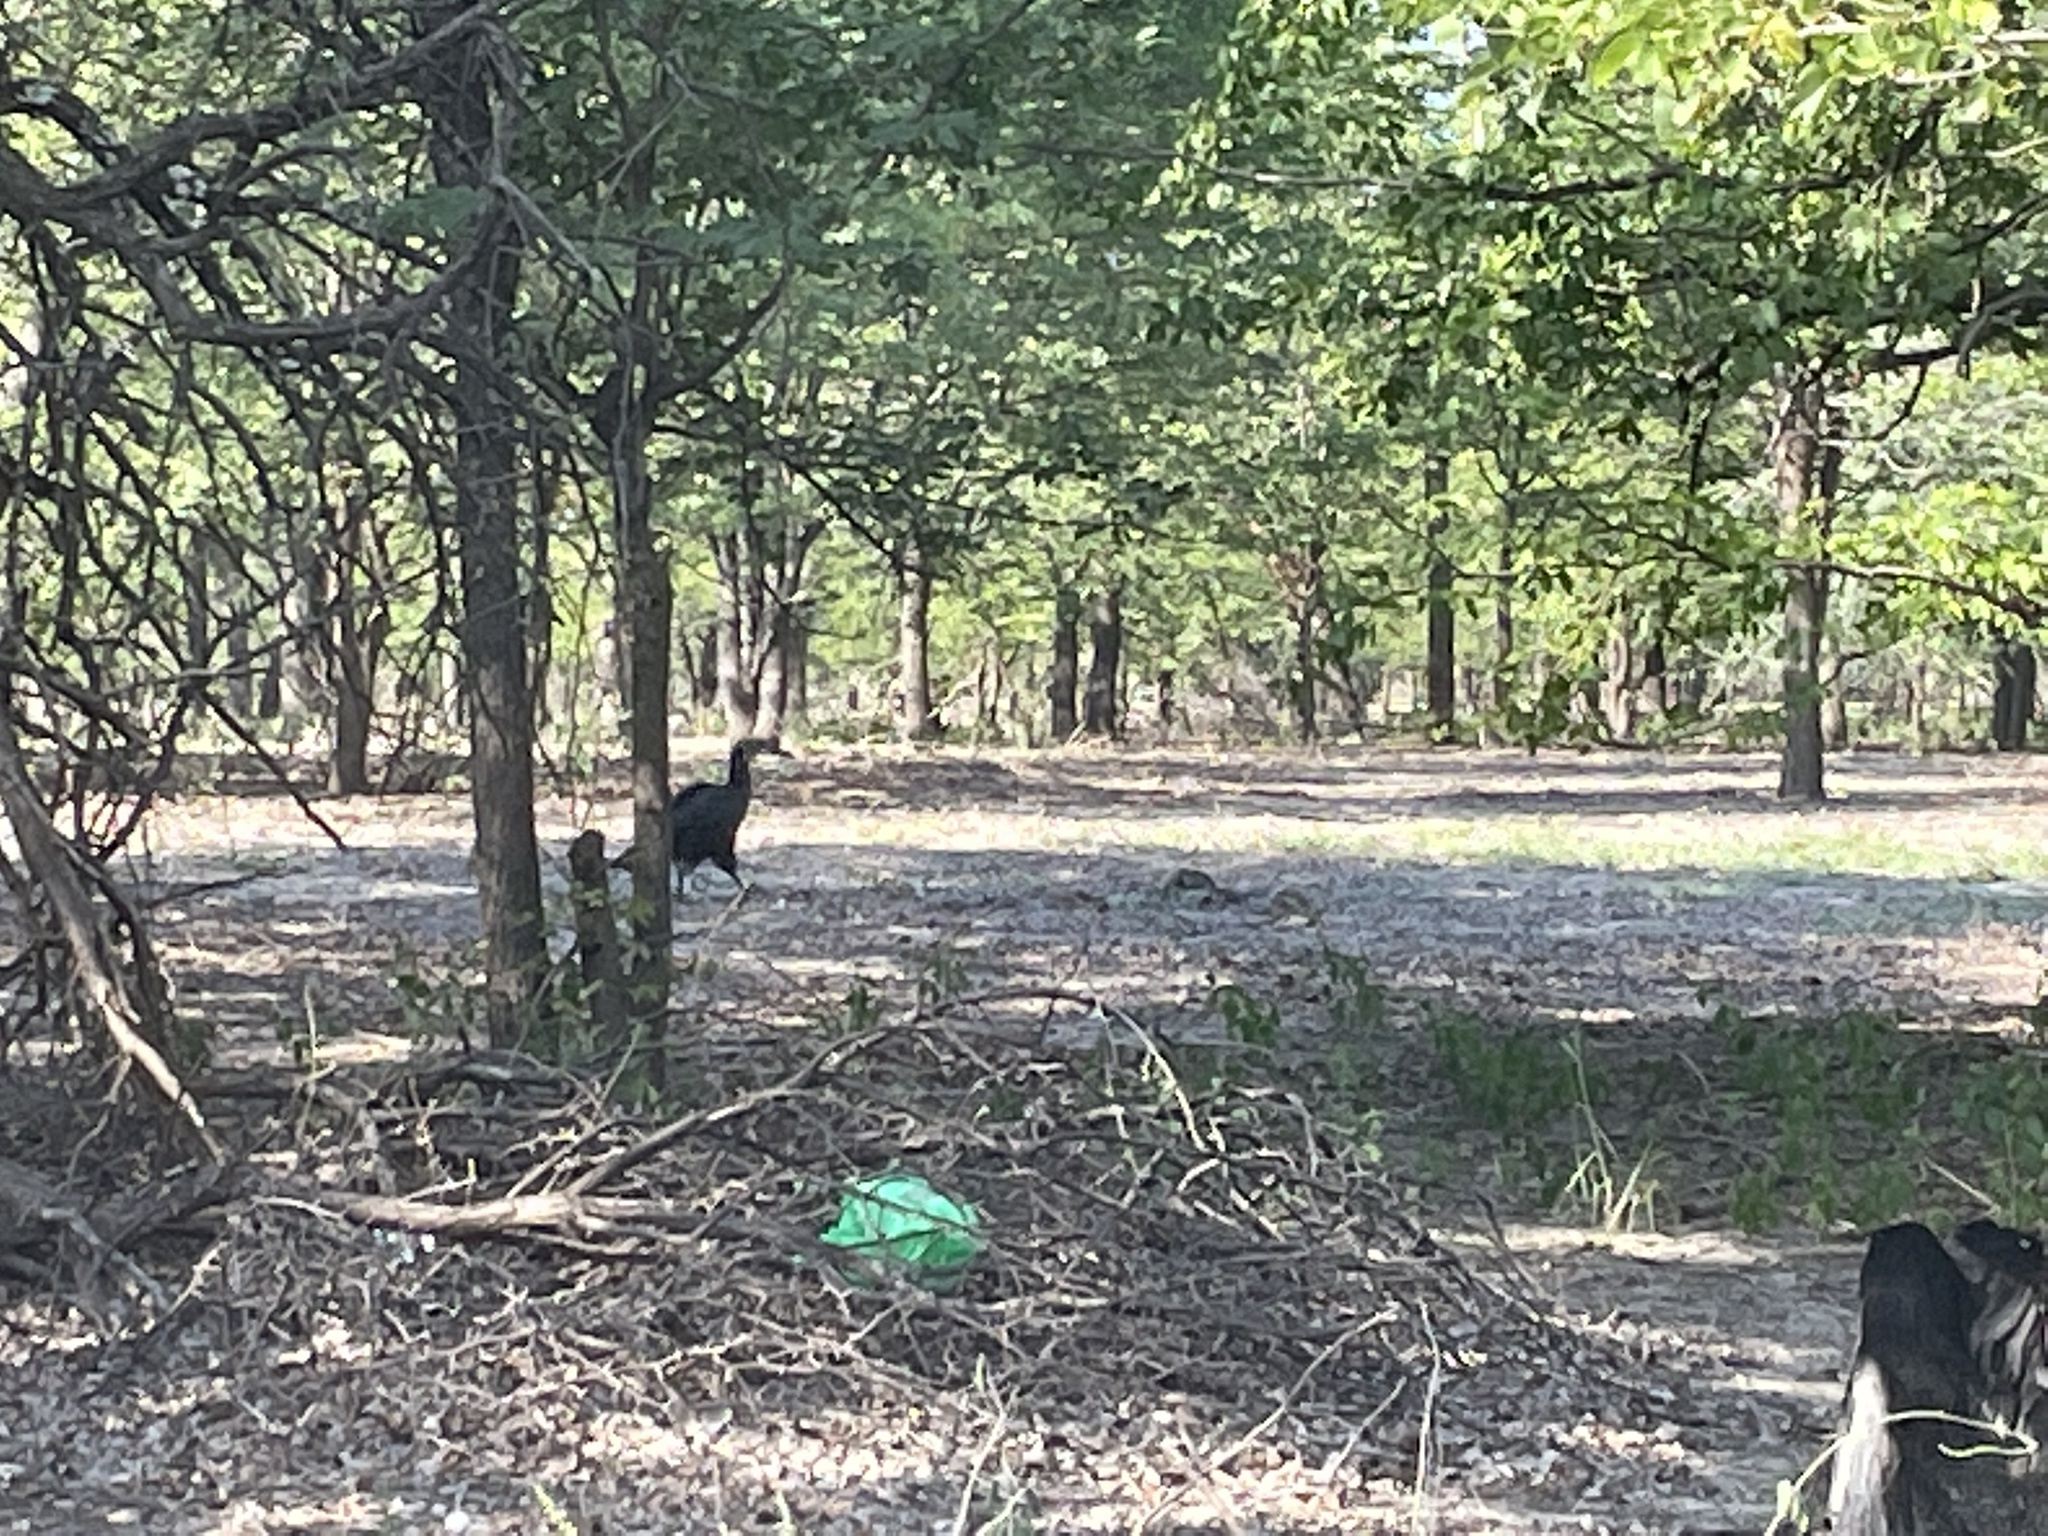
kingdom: Animalia
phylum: Chordata
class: Aves
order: Bucerotiformes
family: Bucorvidae
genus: Bucorvus
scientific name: Bucorvus leadbeateri
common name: Southern ground-hornbill
